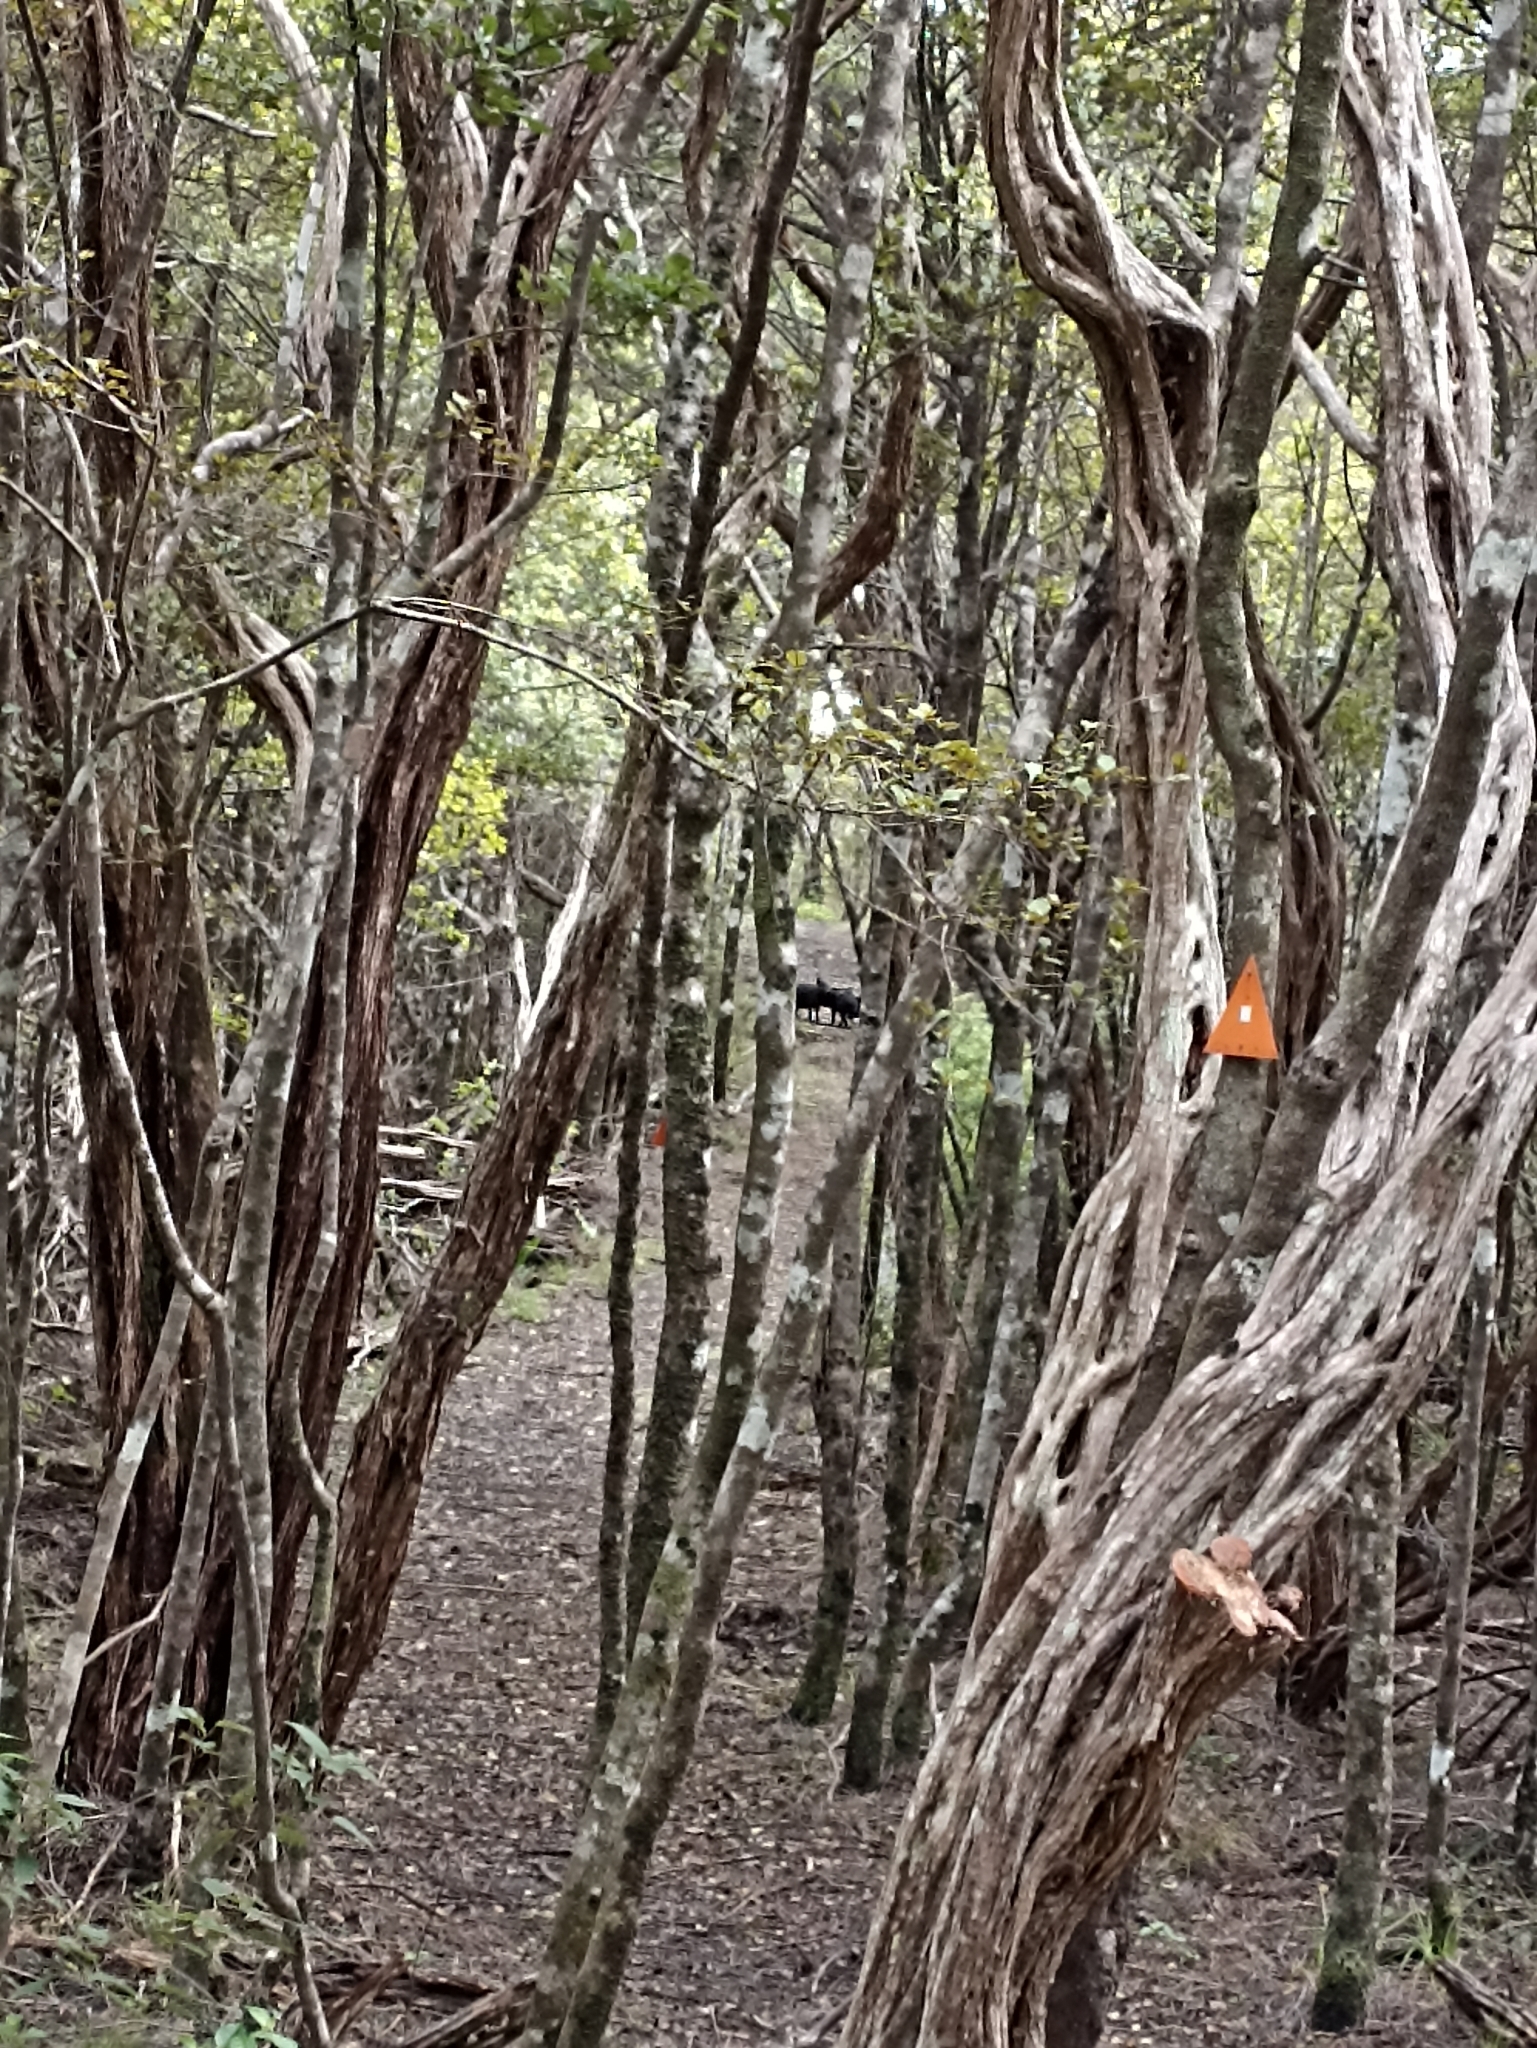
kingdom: Animalia
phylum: Chordata
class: Mammalia
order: Artiodactyla
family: Suidae
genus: Sus
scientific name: Sus scrofa
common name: Wild boar
